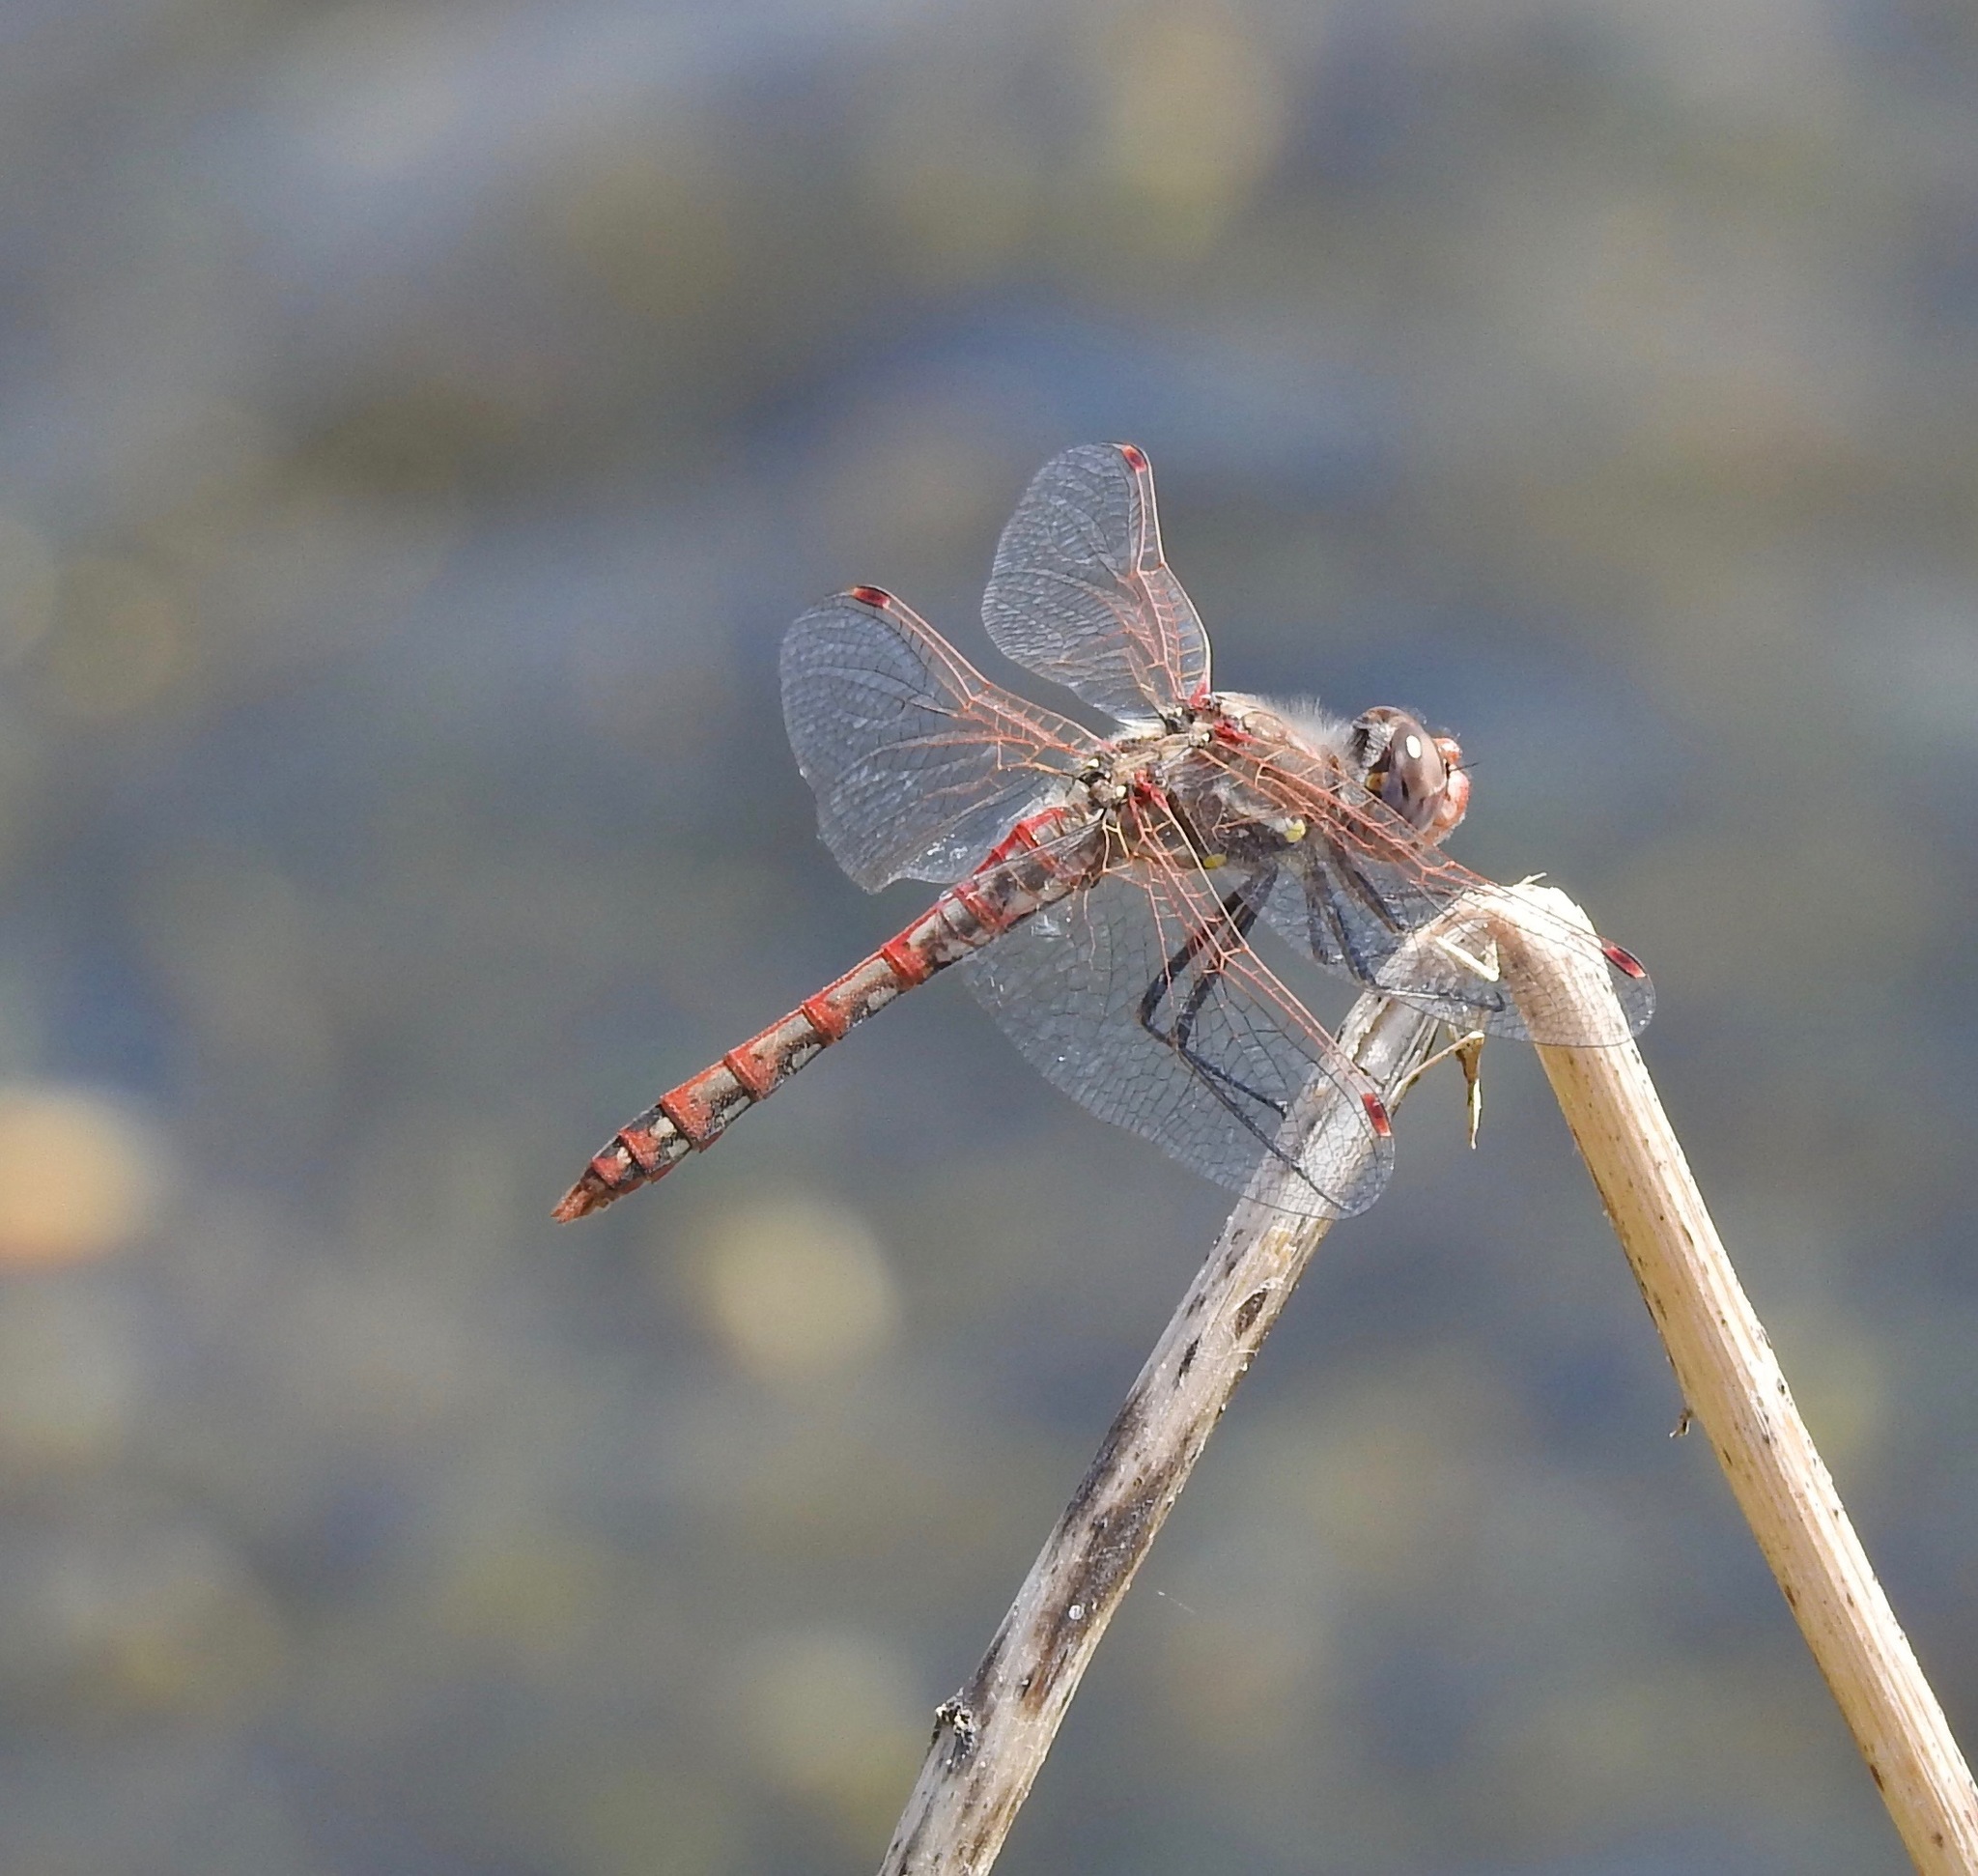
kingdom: Animalia
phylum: Arthropoda
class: Insecta
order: Odonata
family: Libellulidae
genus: Sympetrum
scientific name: Sympetrum corruptum
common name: Variegated meadowhawk
